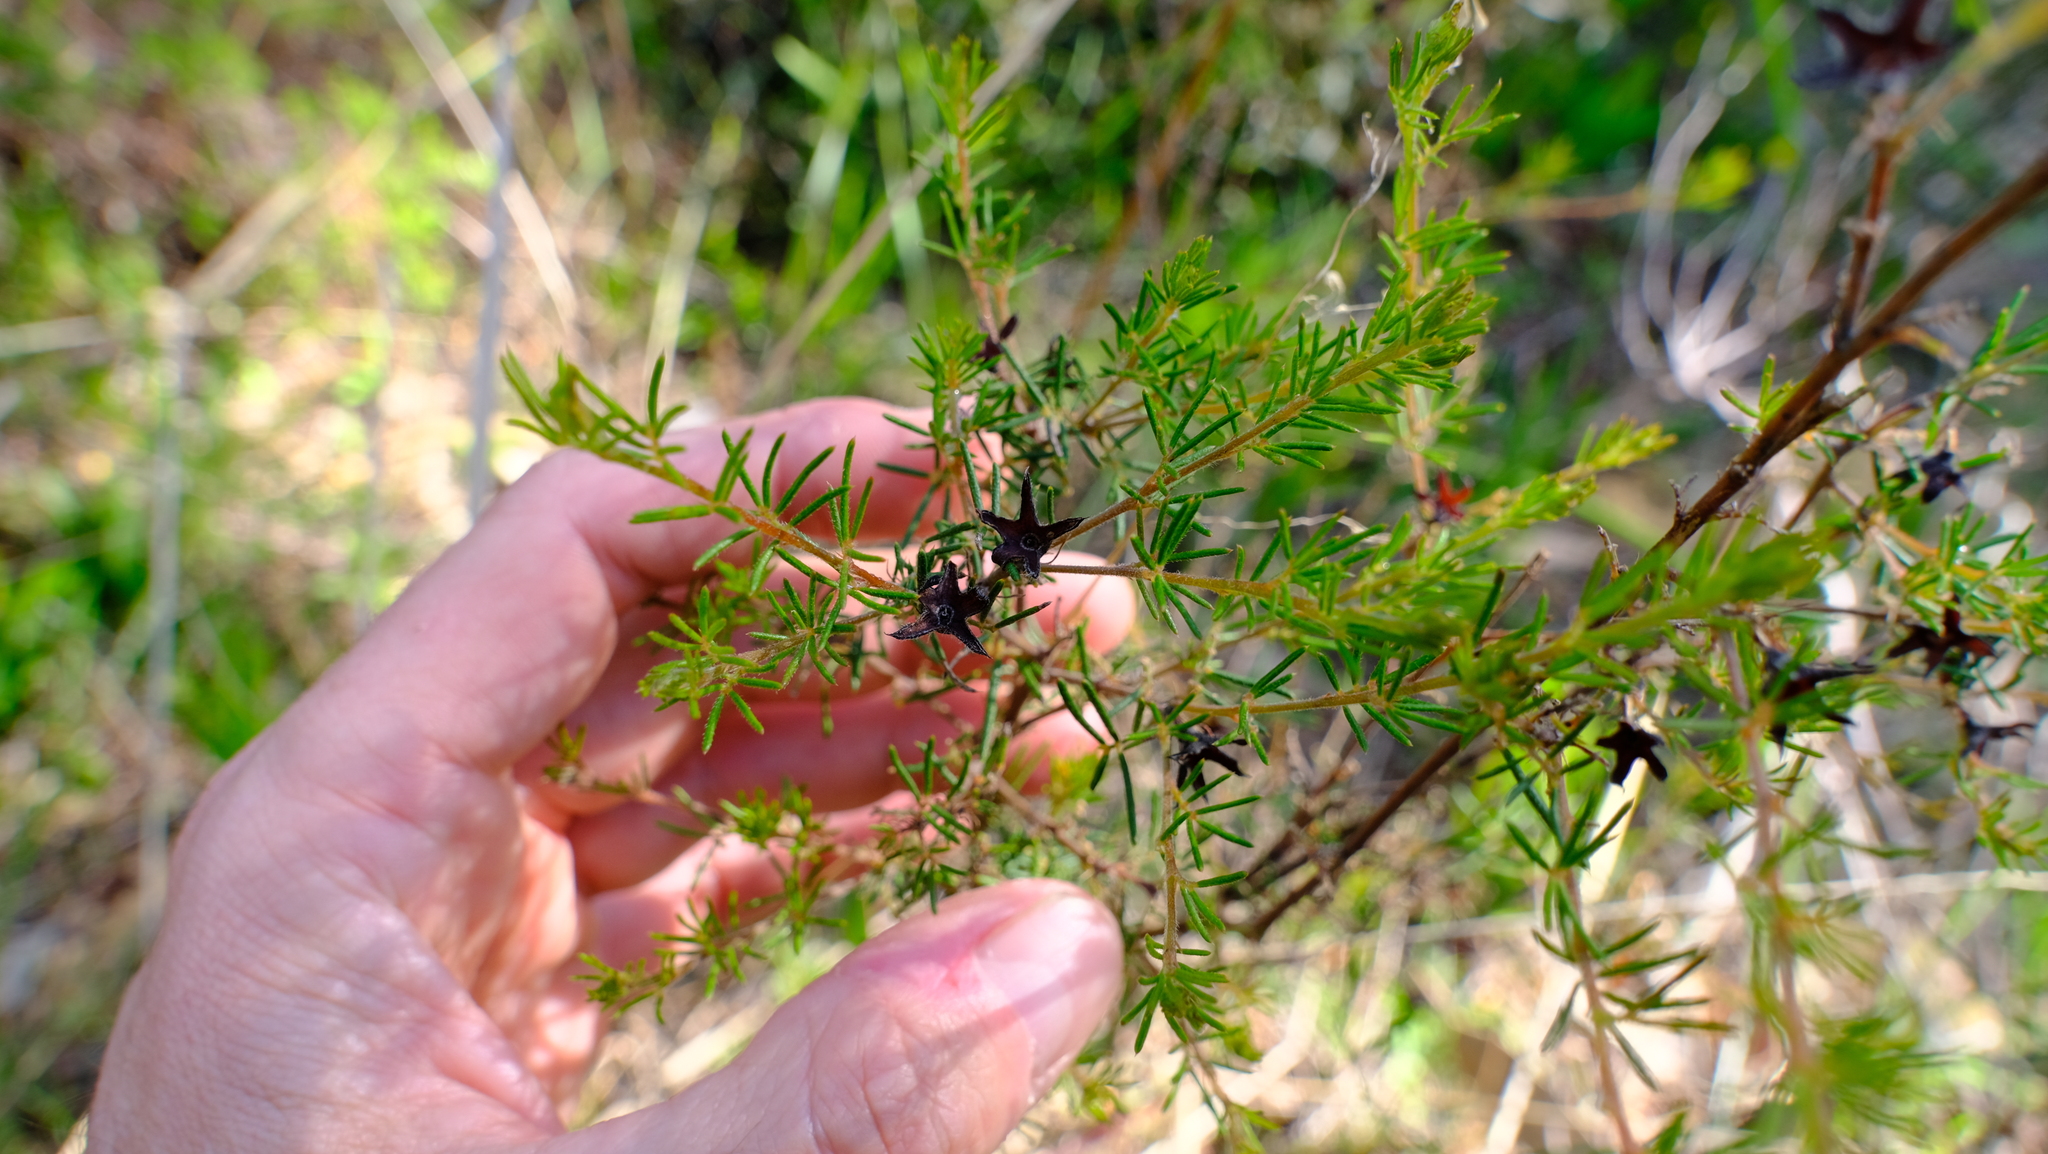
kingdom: Plantae
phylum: Tracheophyta
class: Magnoliopsida
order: Fabales
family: Fabaceae
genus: Gompholobium
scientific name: Gompholobium tomentosum
